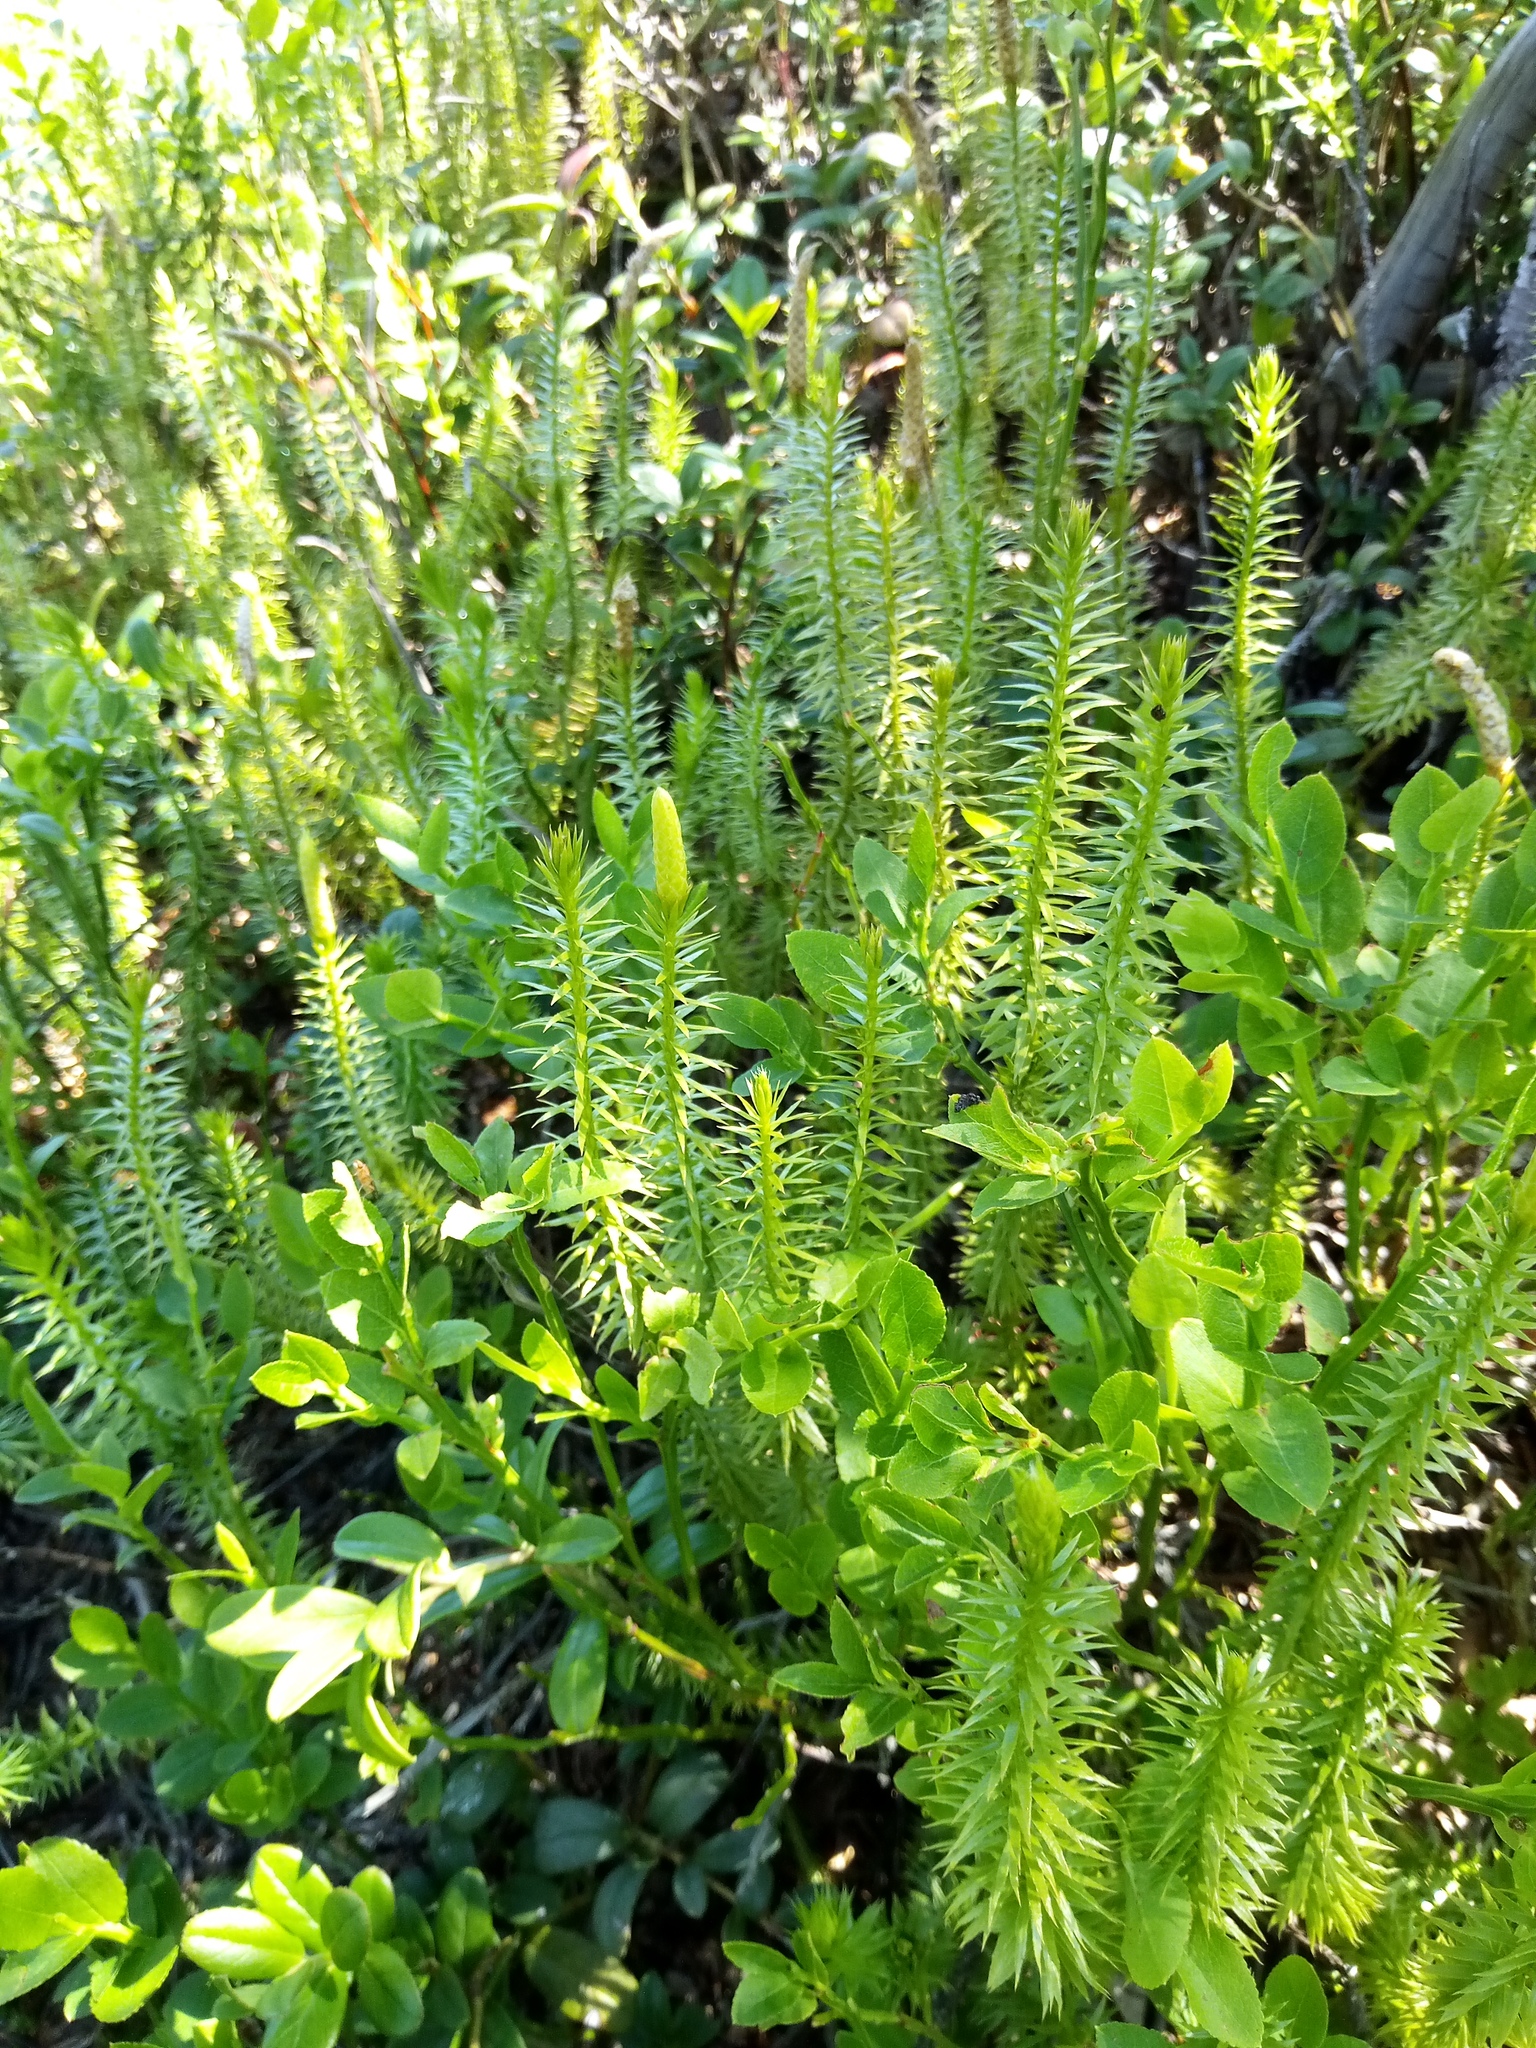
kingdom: Plantae
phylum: Tracheophyta
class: Lycopodiopsida
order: Lycopodiales
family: Lycopodiaceae
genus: Spinulum
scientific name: Spinulum annotinum
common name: Interrupted club-moss
